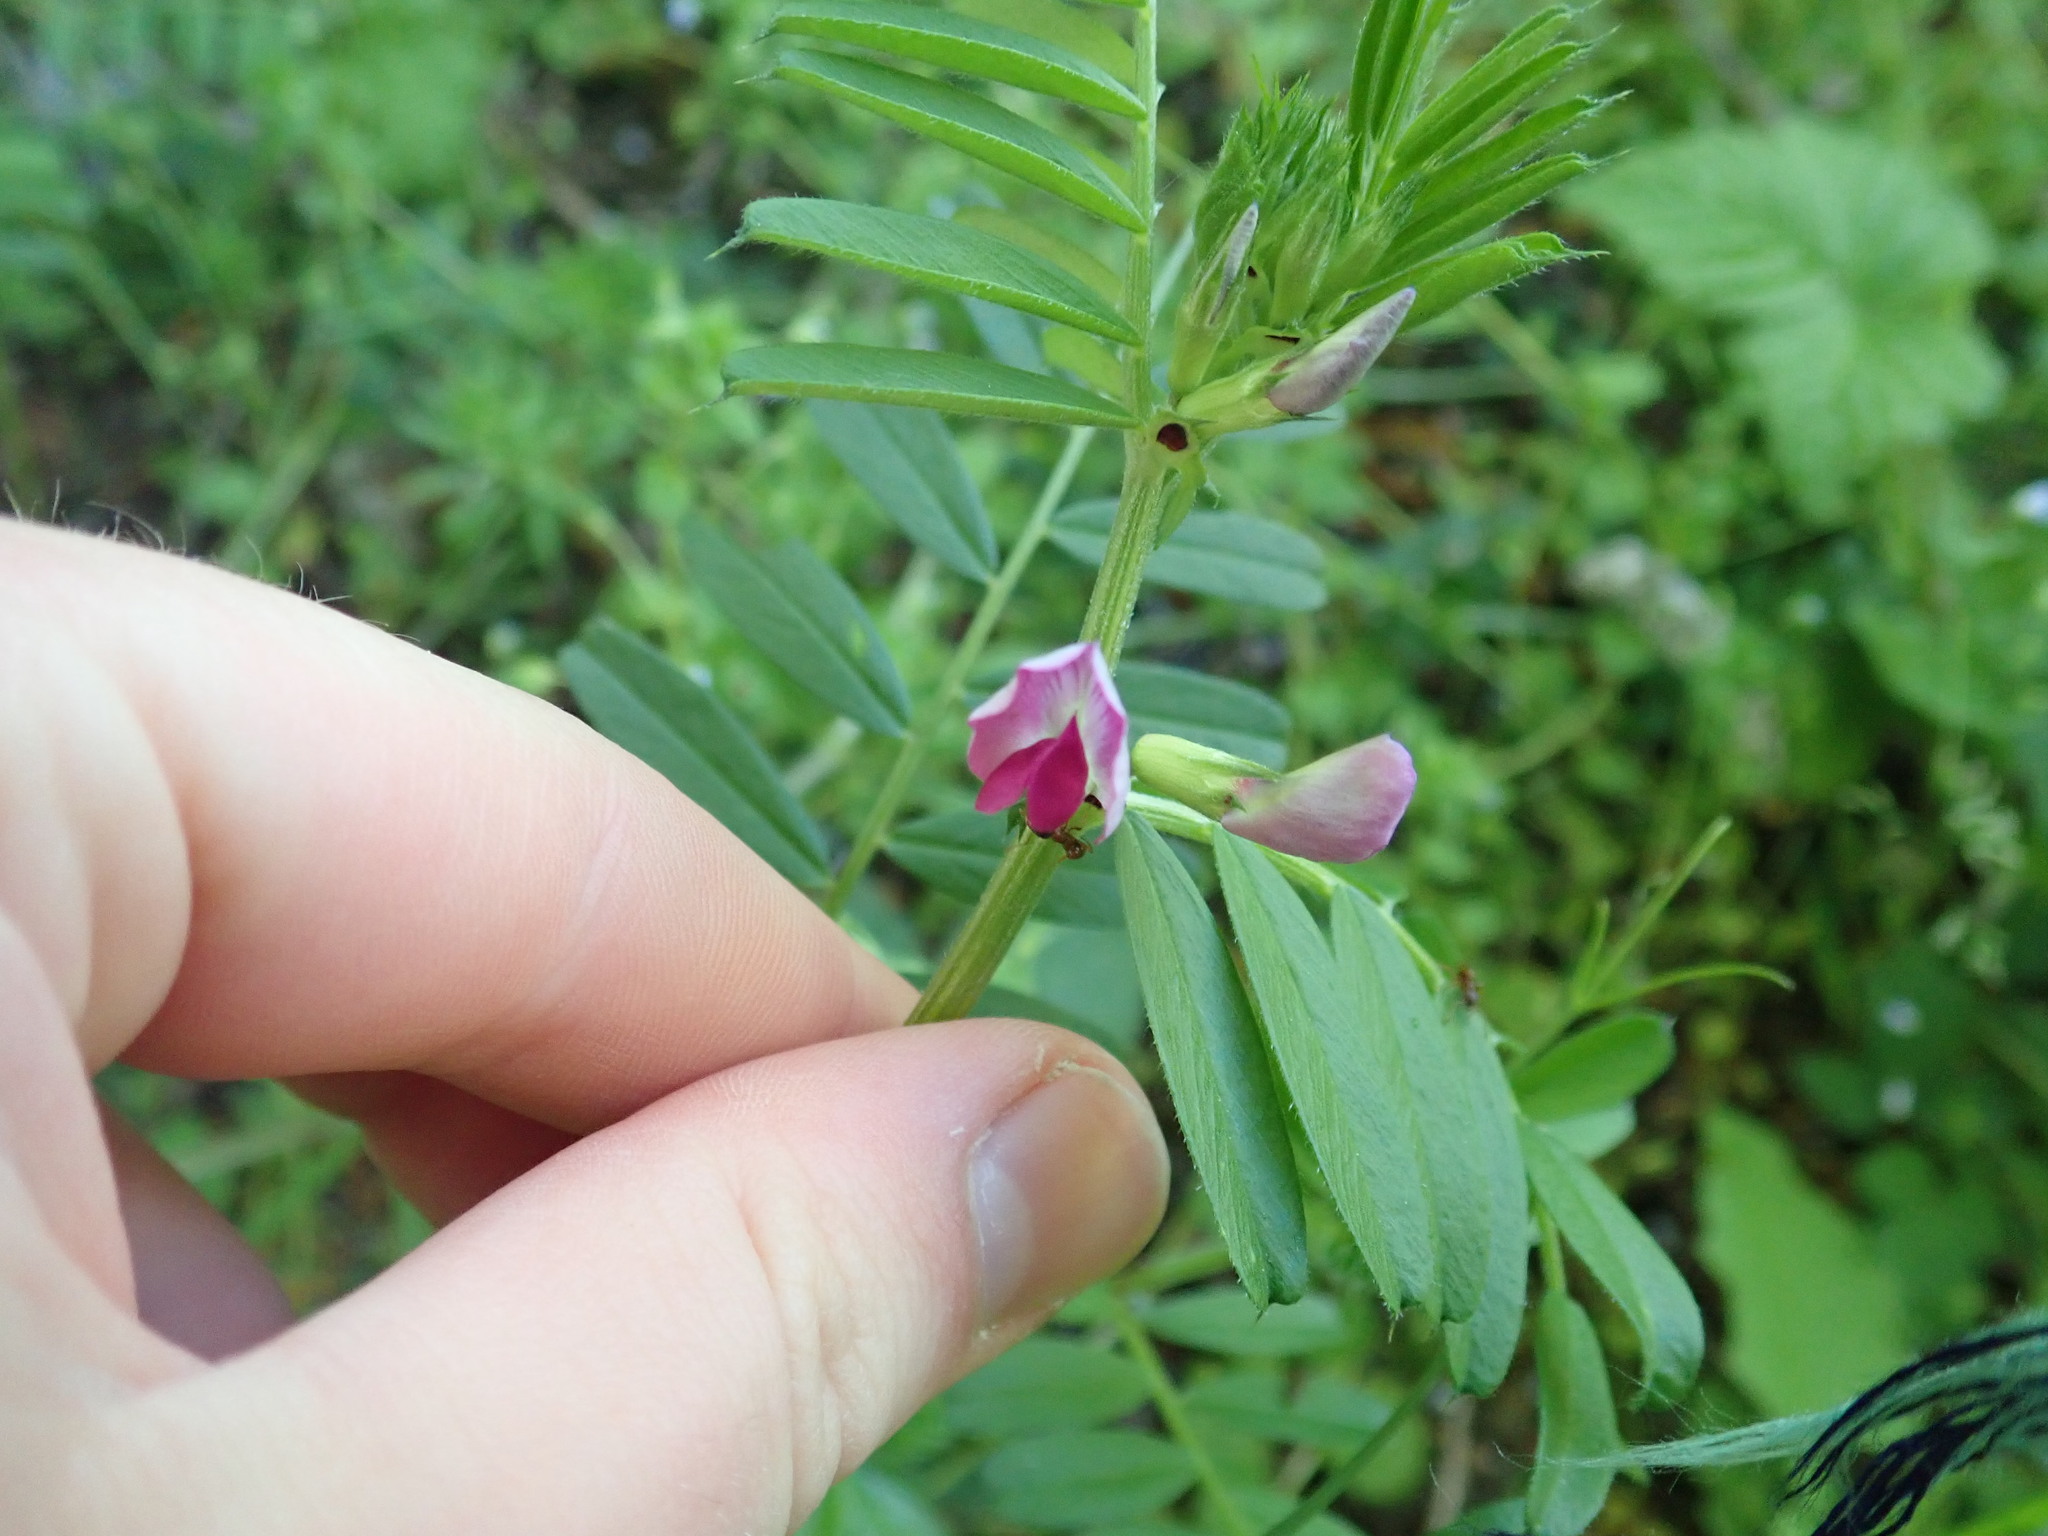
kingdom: Plantae
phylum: Tracheophyta
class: Magnoliopsida
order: Fabales
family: Fabaceae
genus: Vicia
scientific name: Vicia sativa
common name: Garden vetch
